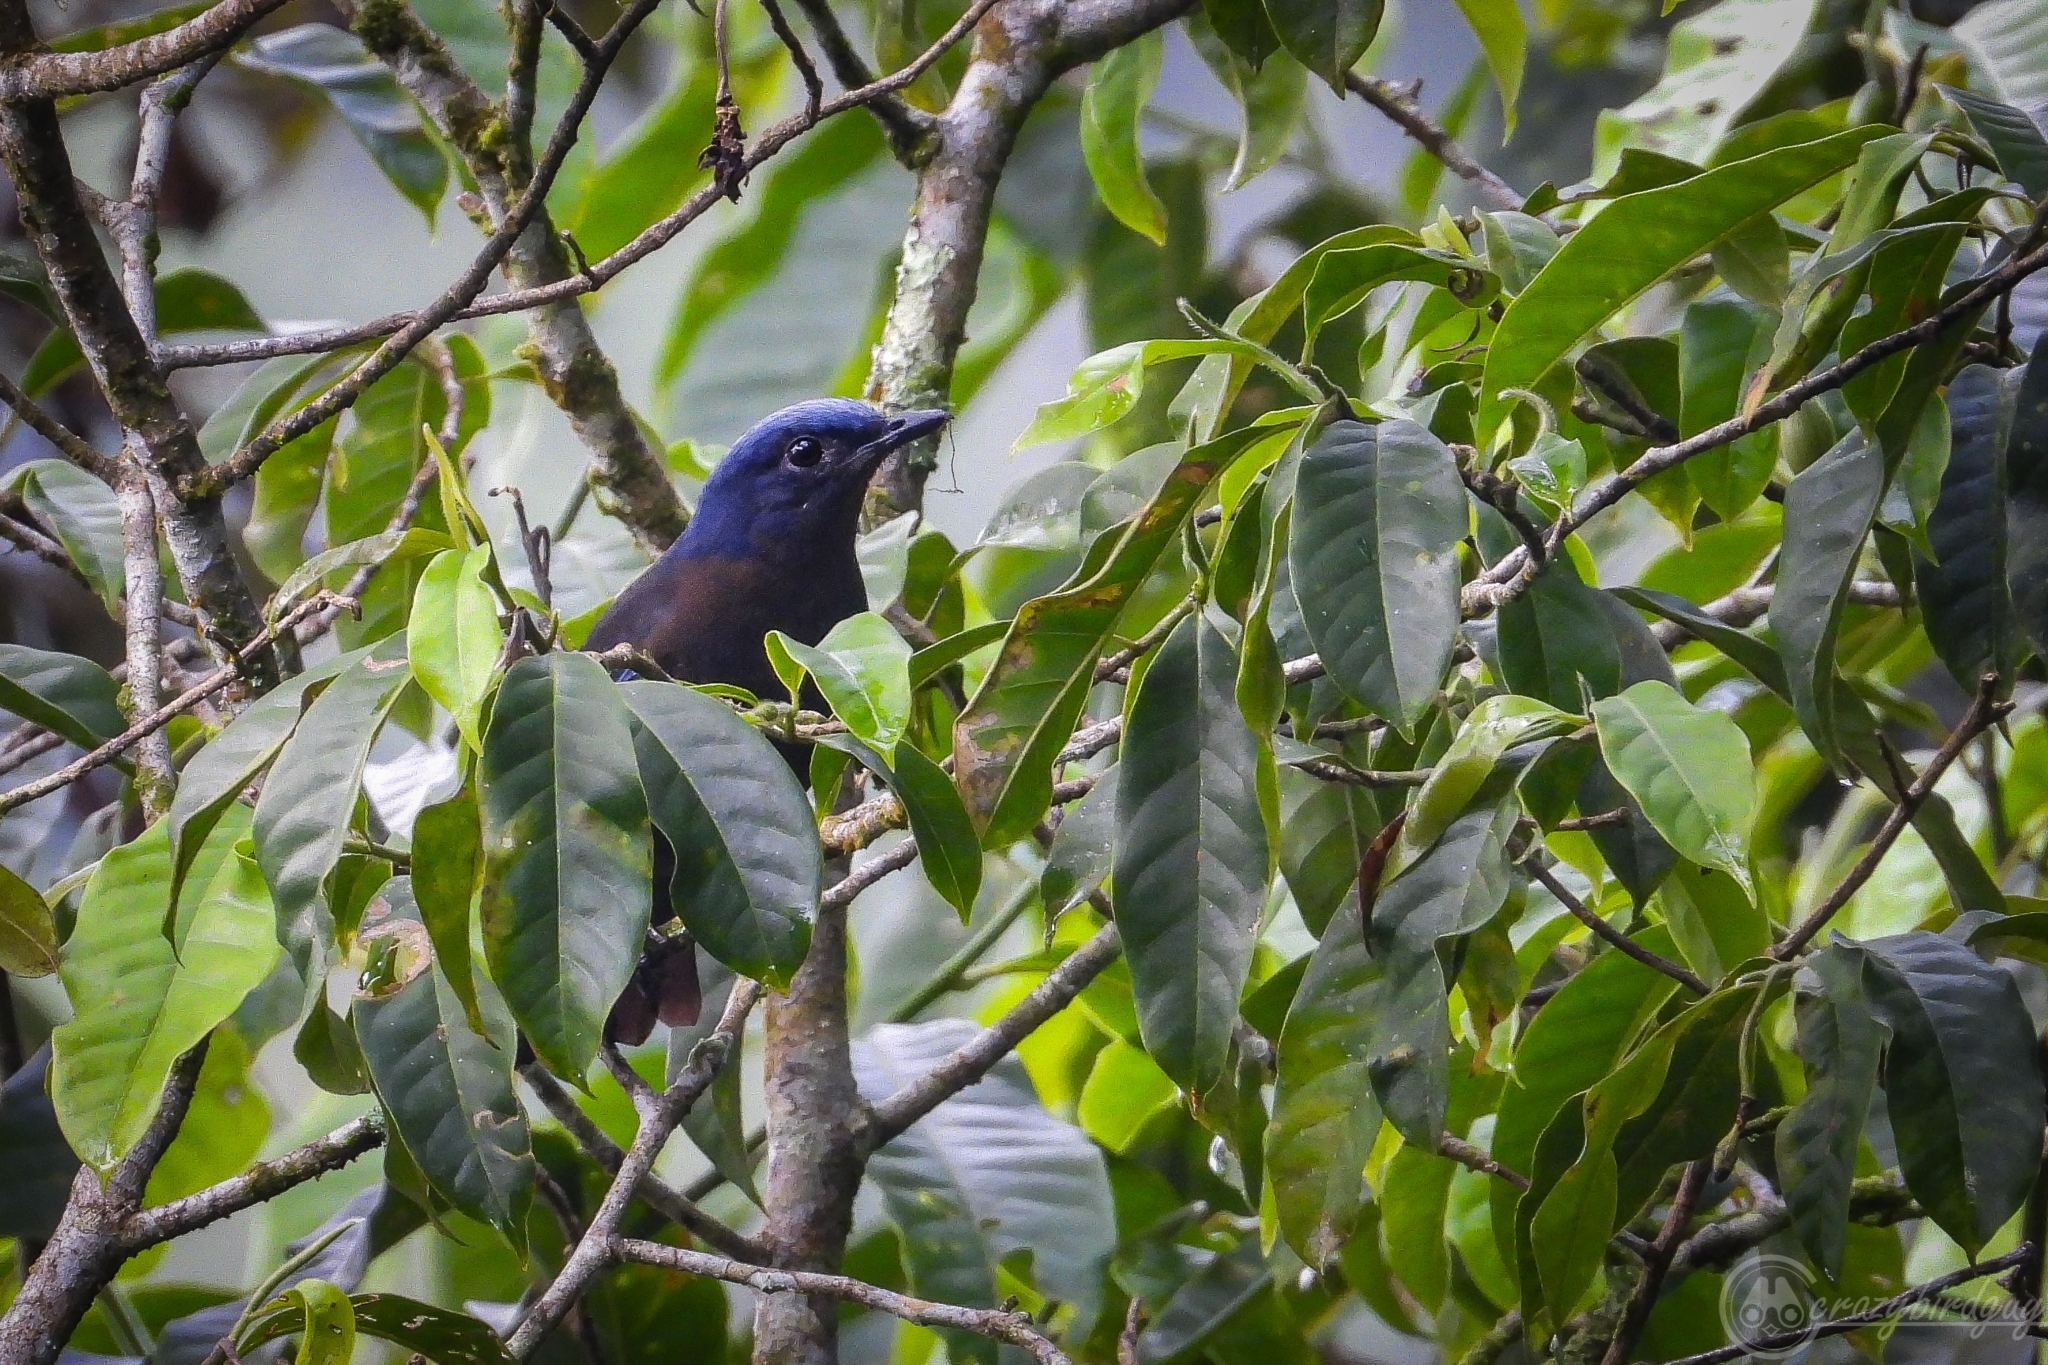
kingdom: Animalia
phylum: Chordata
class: Aves
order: Passeriformes
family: Turdidae
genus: Cochoa
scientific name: Cochoa azurea
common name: Javan cochoa
